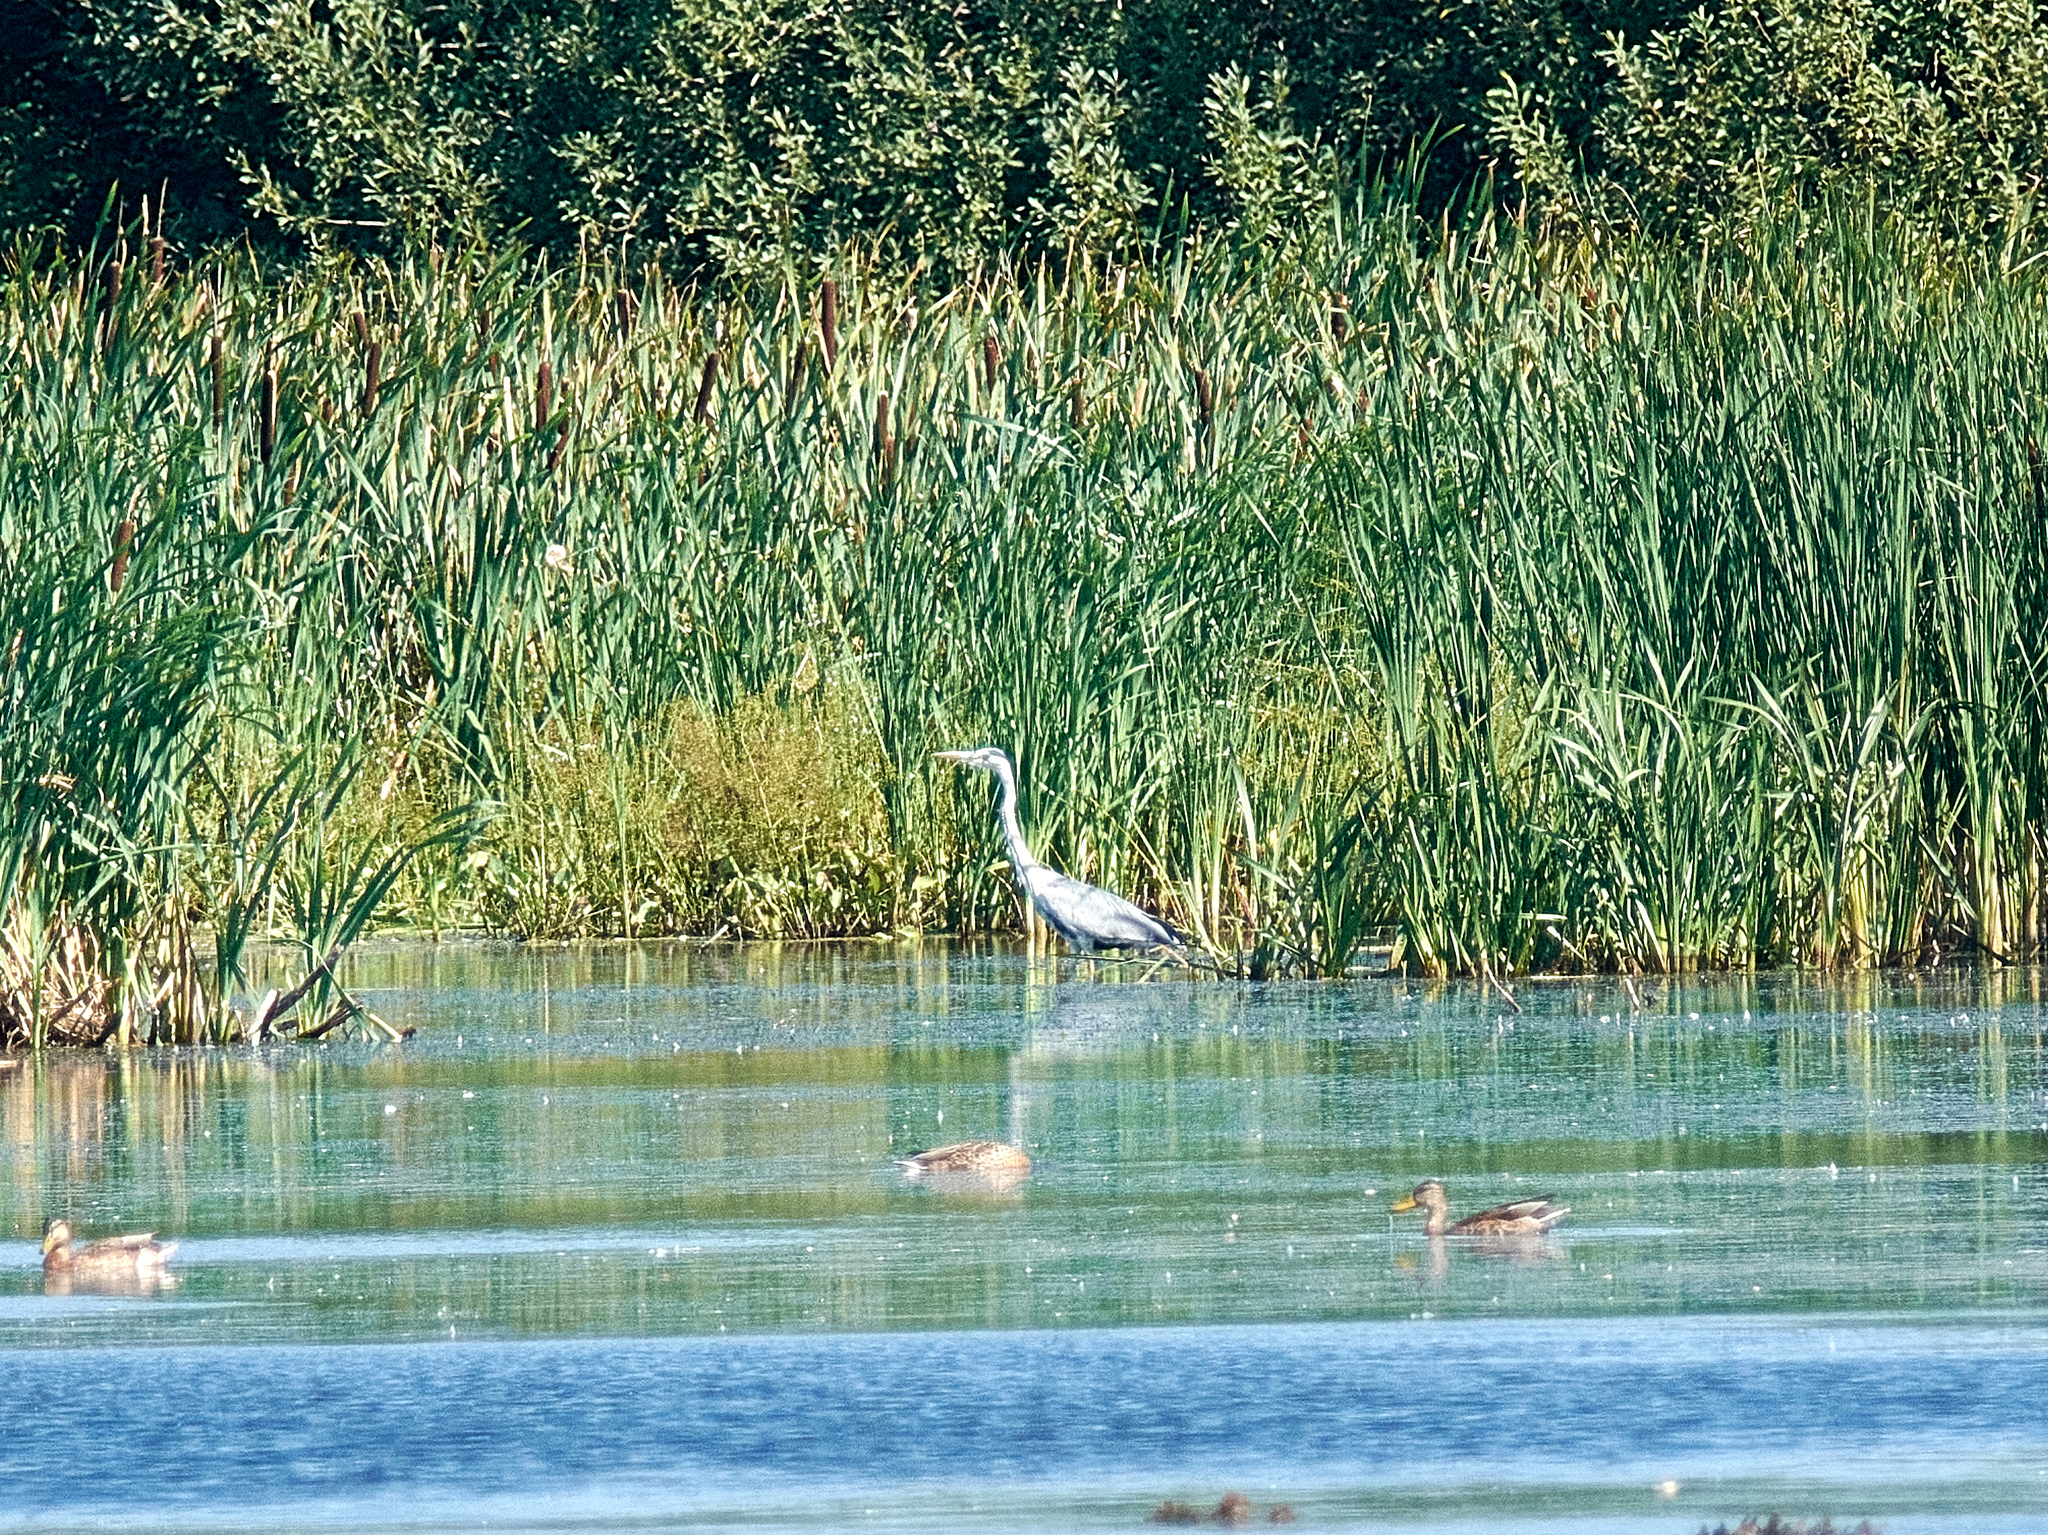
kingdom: Animalia
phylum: Chordata
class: Aves
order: Pelecaniformes
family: Ardeidae
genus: Ardea
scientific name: Ardea cinerea
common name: Grey heron
